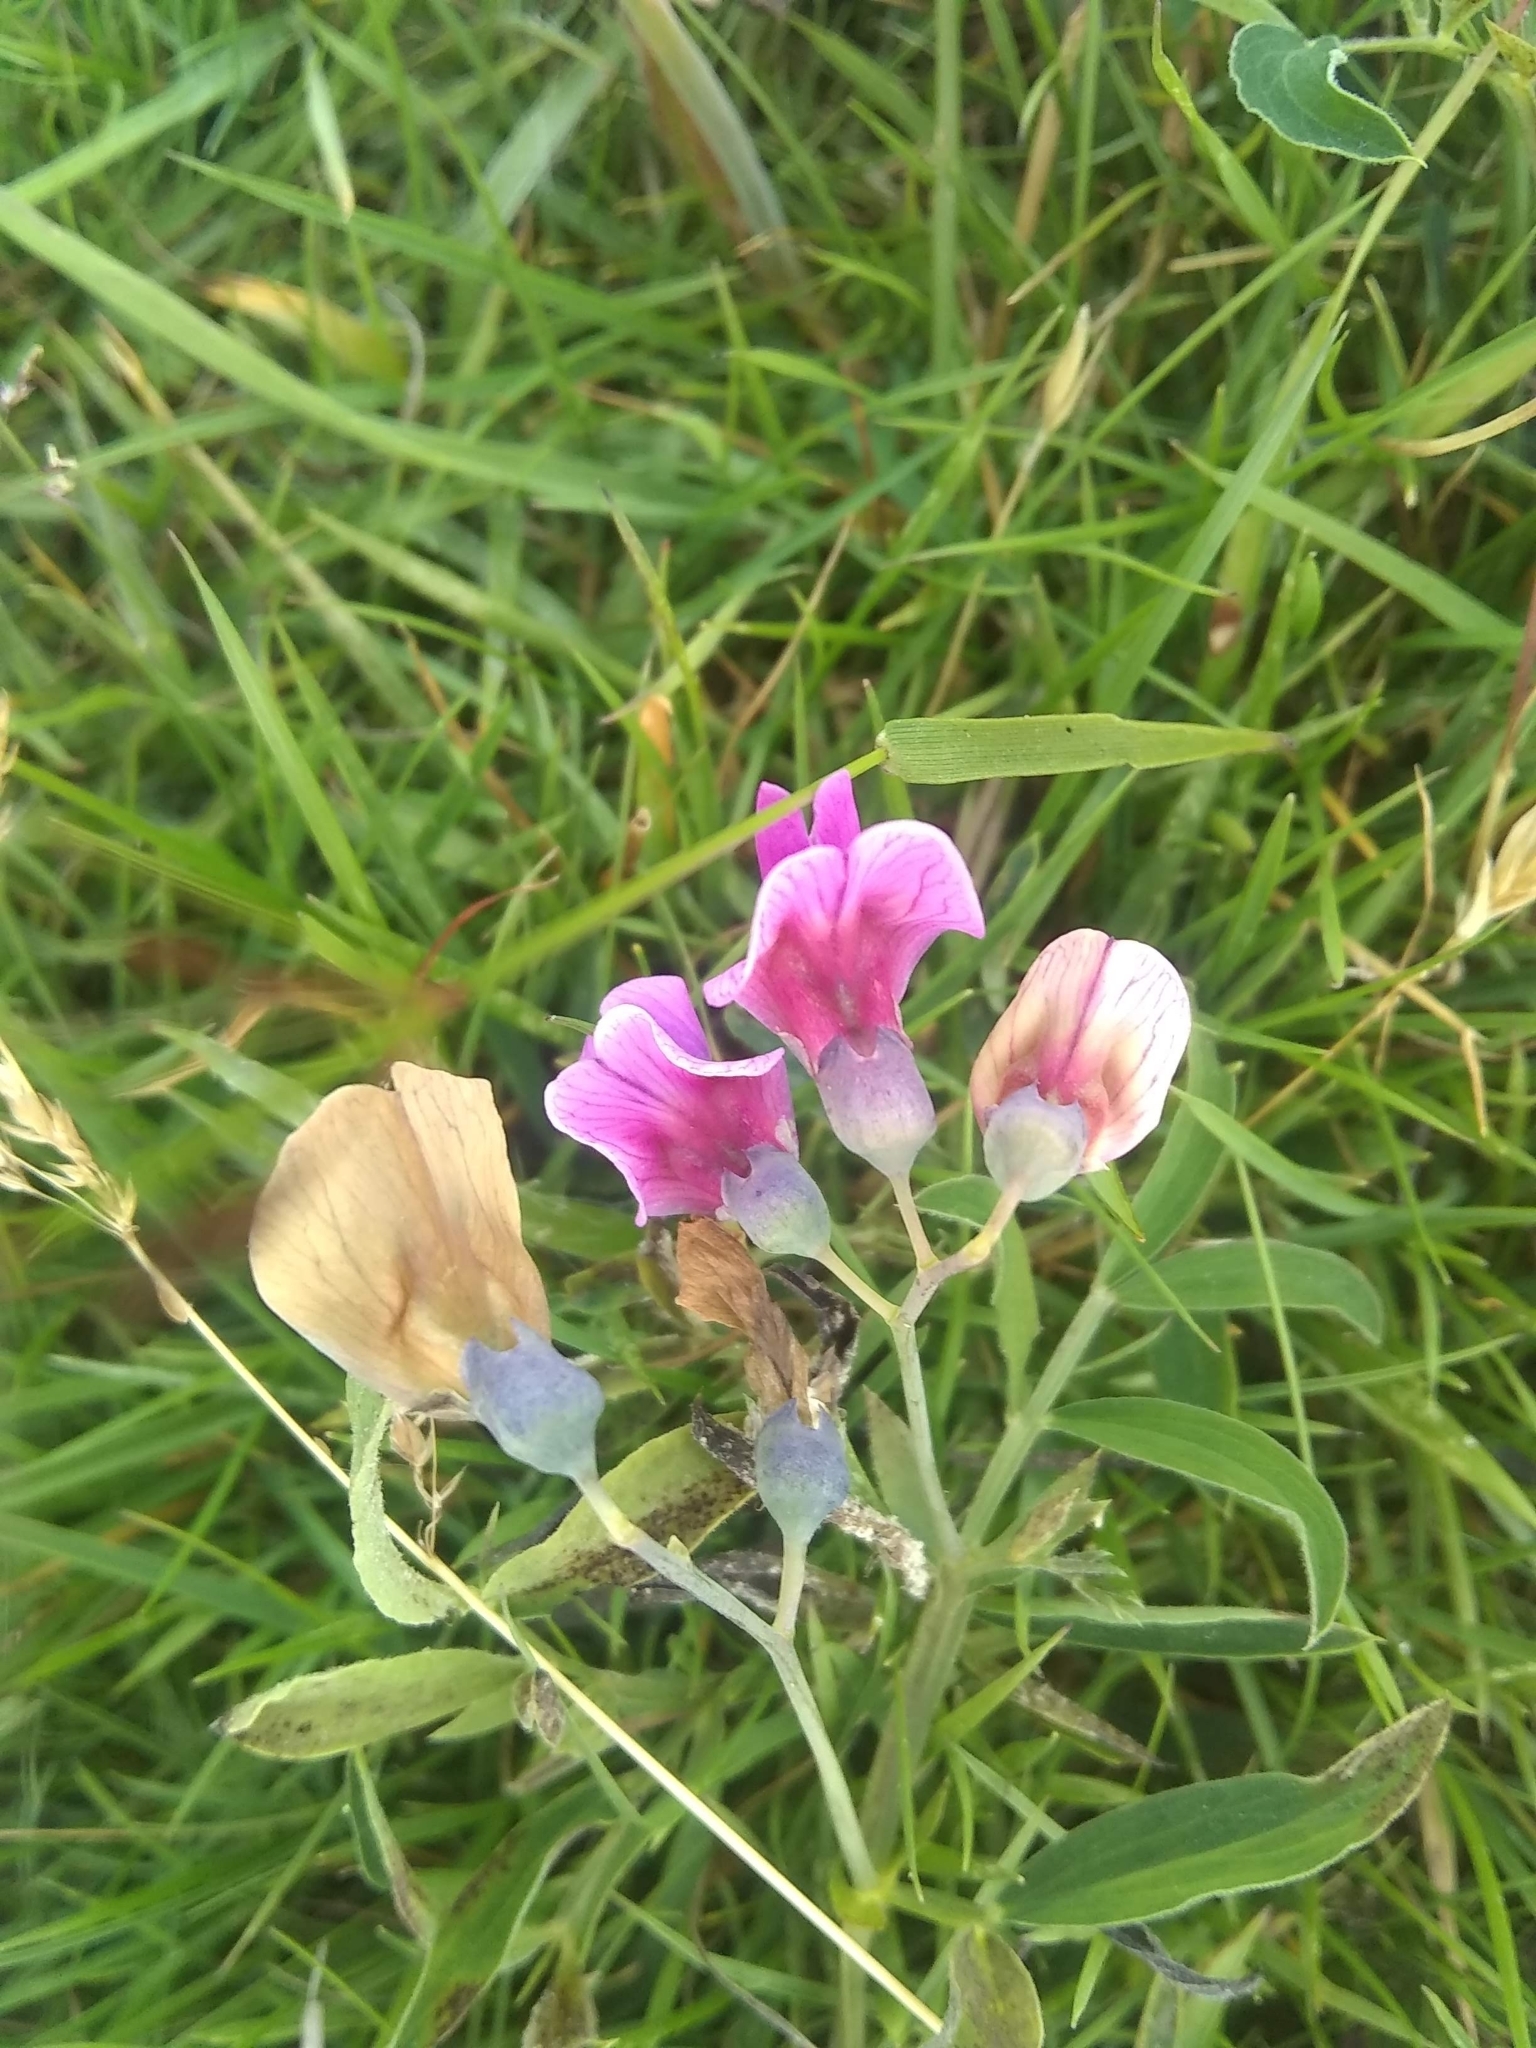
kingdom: Plantae
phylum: Tracheophyta
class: Magnoliopsida
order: Fabales
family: Fabaceae
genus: Lathyrus
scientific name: Lathyrus linifolius
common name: Bitter-vetch
